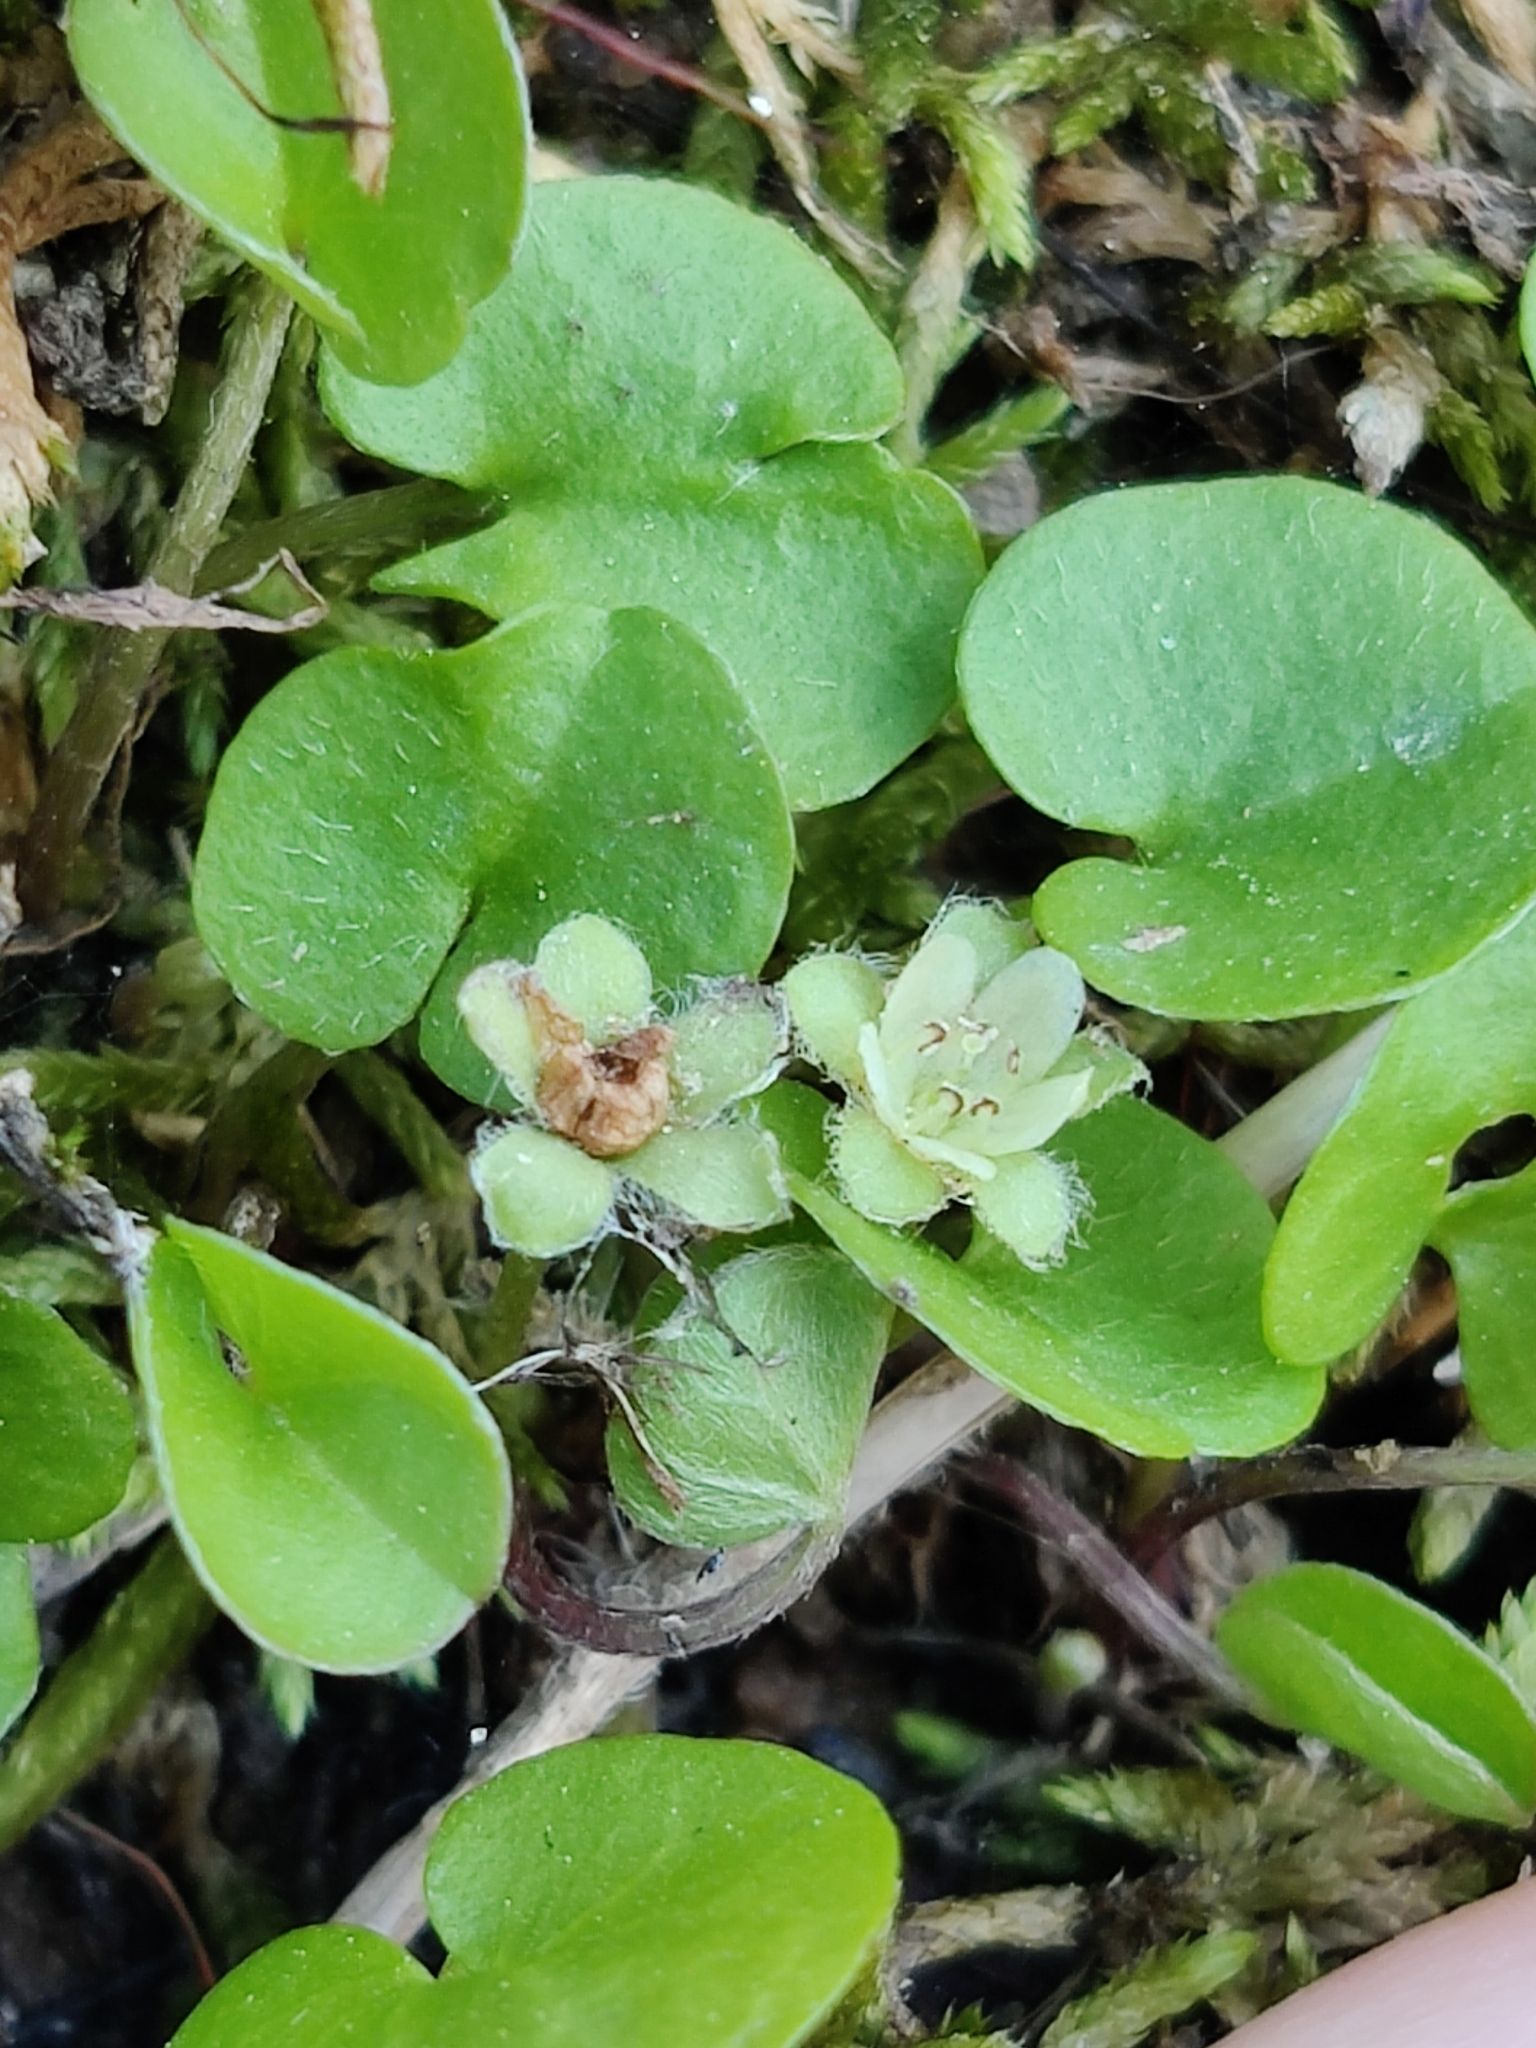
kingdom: Plantae
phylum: Tracheophyta
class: Magnoliopsida
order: Solanales
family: Convolvulaceae
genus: Dichondra
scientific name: Dichondra carolinensis
